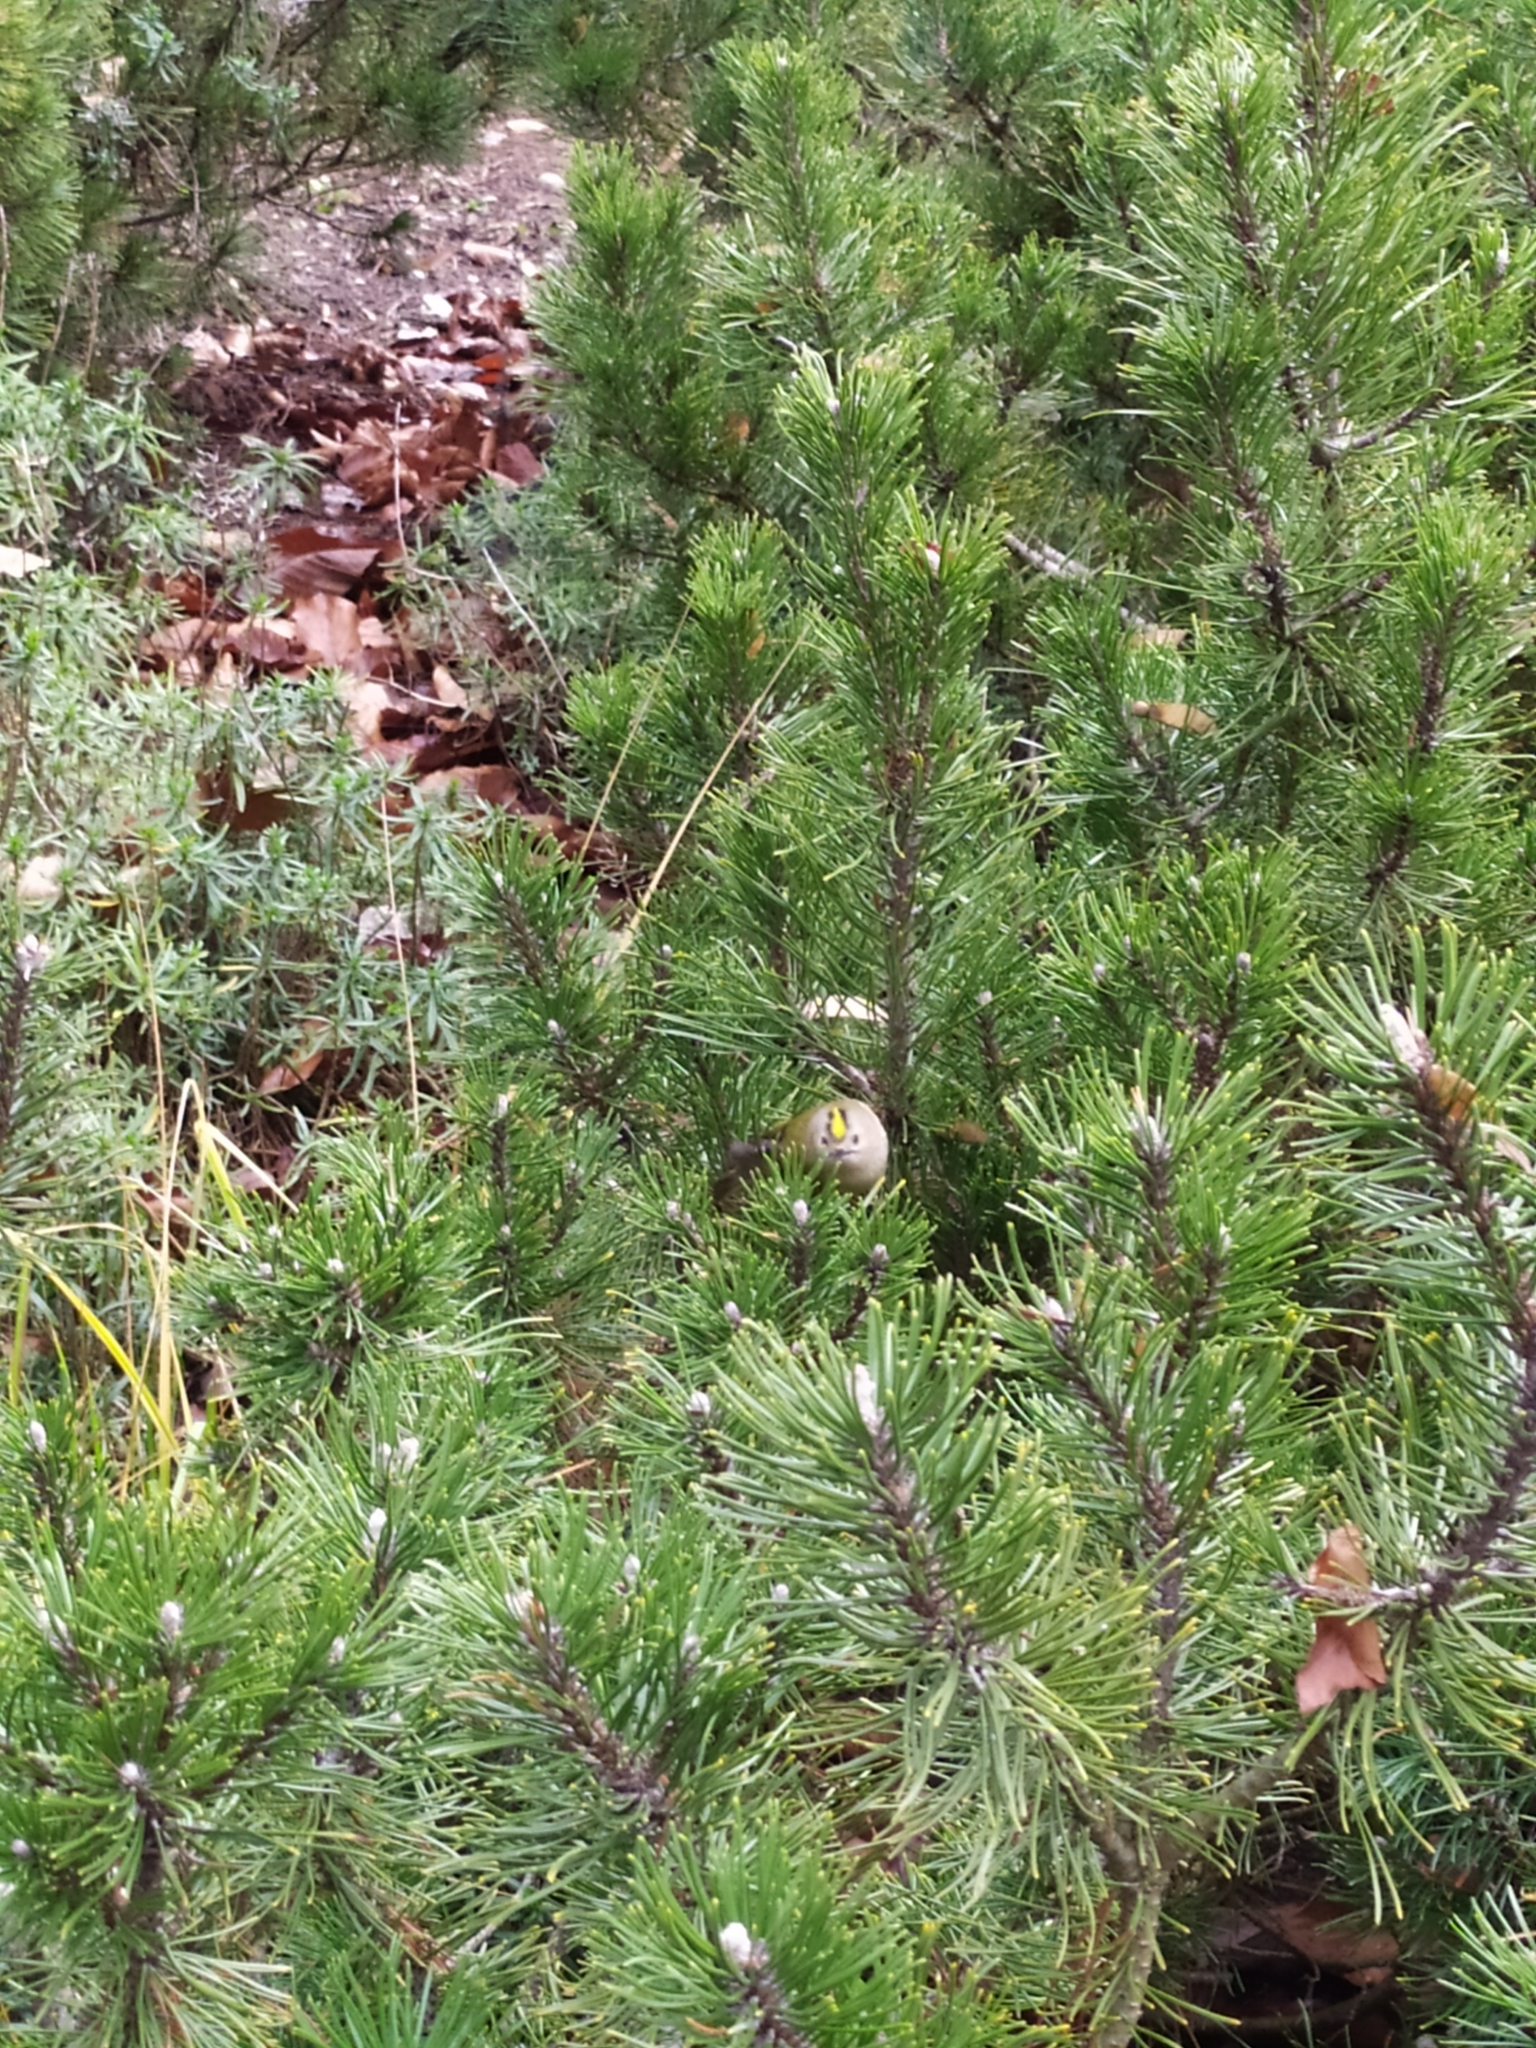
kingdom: Animalia
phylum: Chordata
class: Aves
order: Passeriformes
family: Regulidae
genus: Regulus
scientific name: Regulus regulus
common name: Goldcrest
